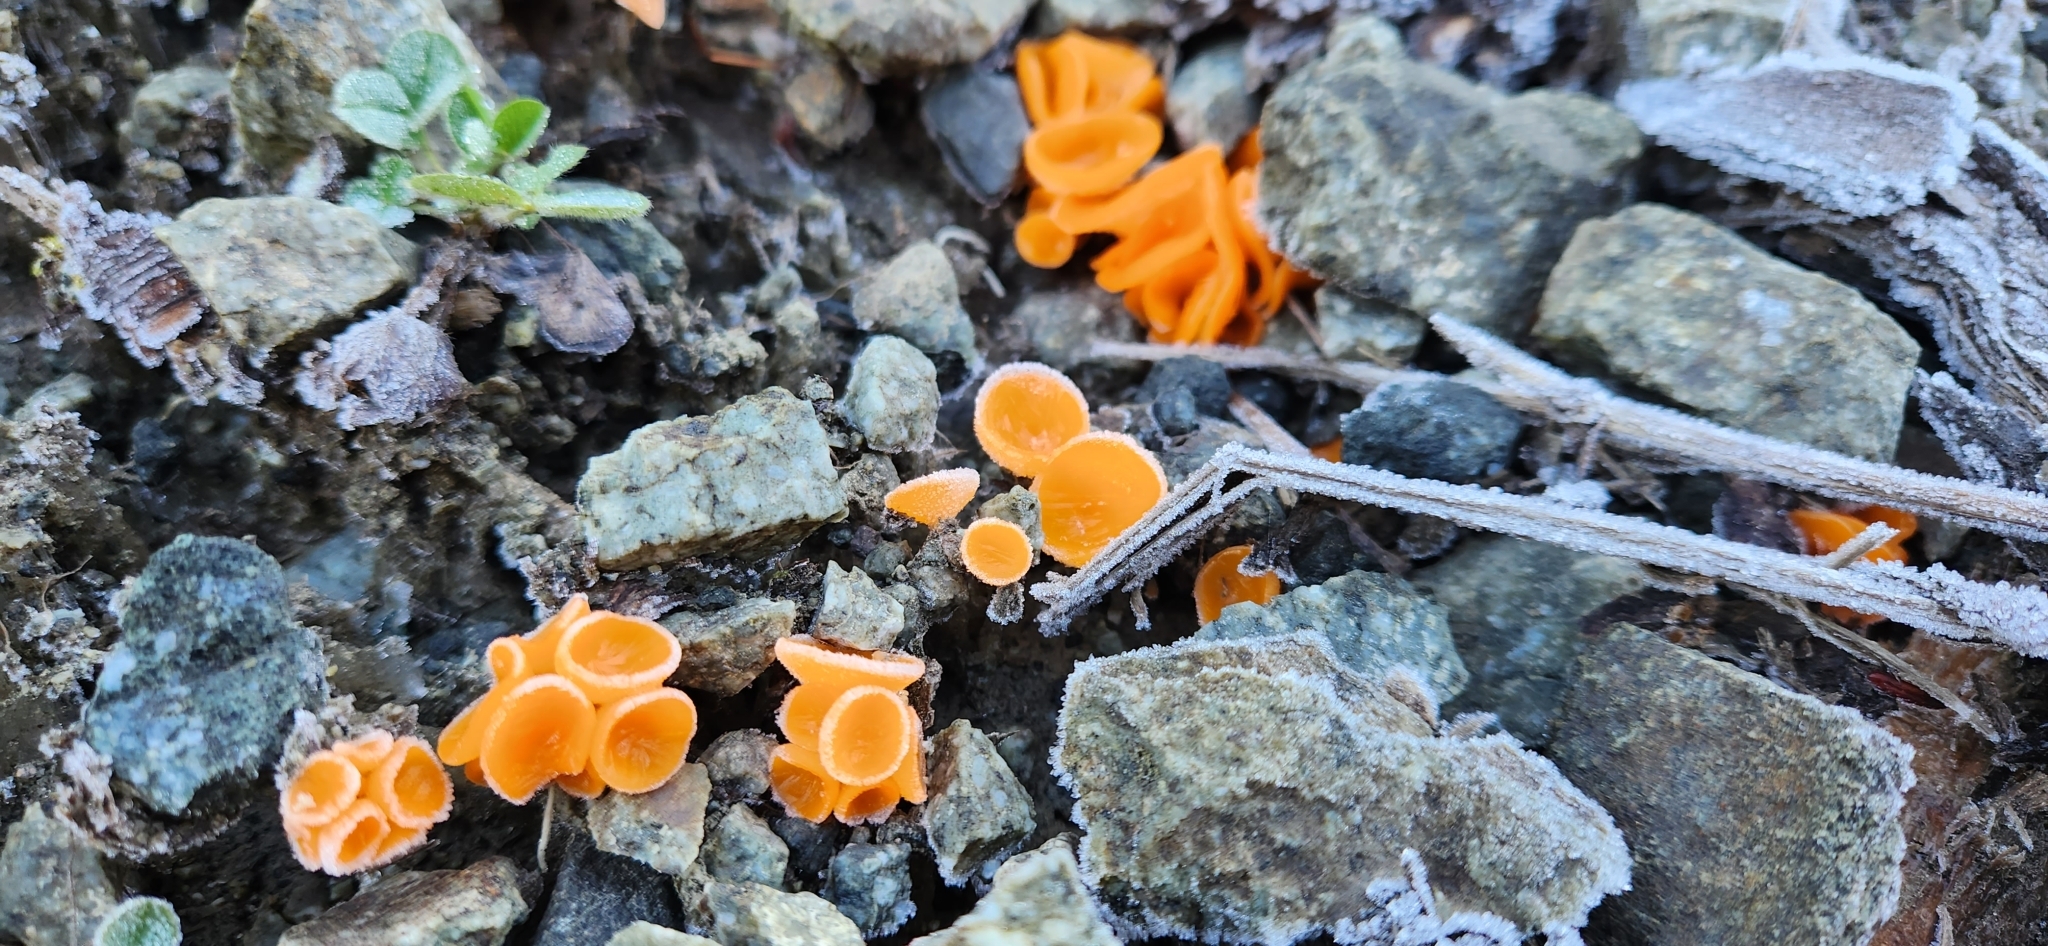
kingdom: Fungi
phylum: Ascomycota
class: Pezizomycetes
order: Pezizales
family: Pyronemataceae
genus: Aleuria
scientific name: Aleuria aurantia
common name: Orange peel fungus
